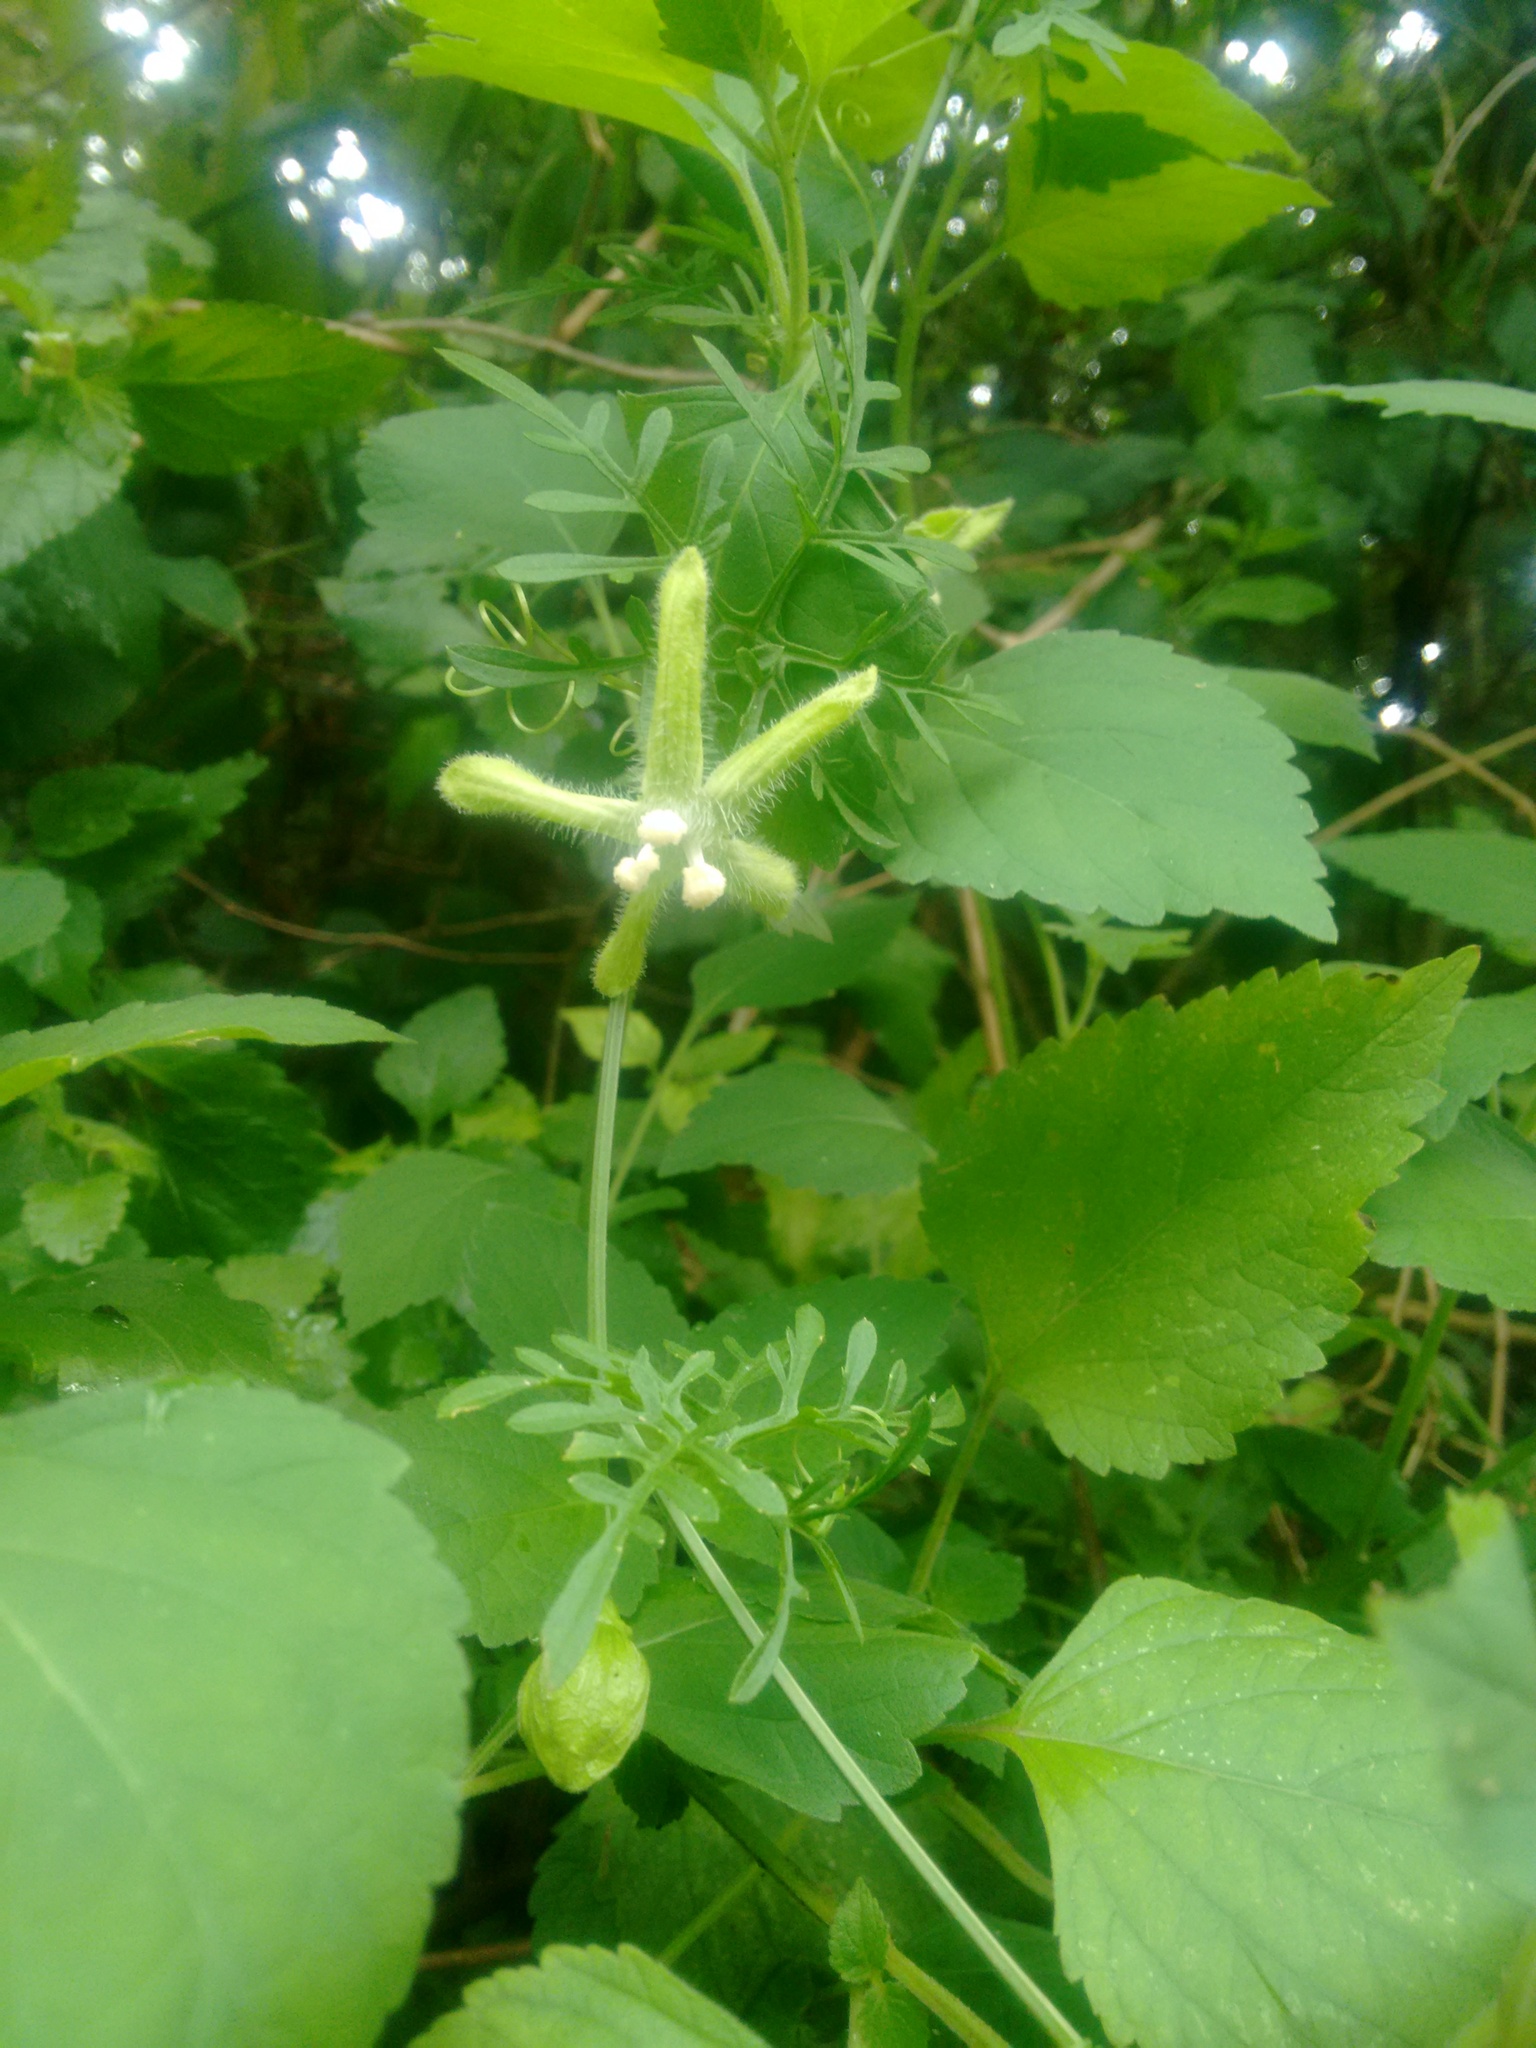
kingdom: Plantae
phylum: Tracheophyta
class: Magnoliopsida
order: Cucurbitales
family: Cucurbitaceae
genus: Abobra
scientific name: Abobra tenuifolia
